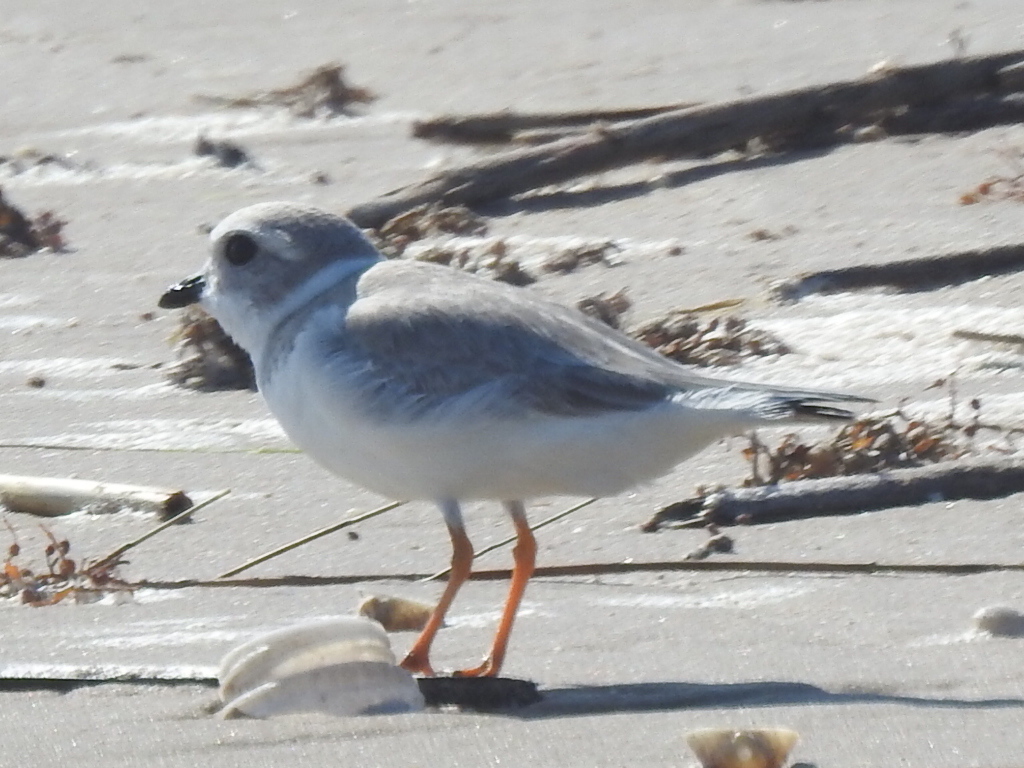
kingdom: Animalia
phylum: Chordata
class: Aves
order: Charadriiformes
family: Charadriidae
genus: Charadrius
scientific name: Charadrius melodus
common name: Piping plover
